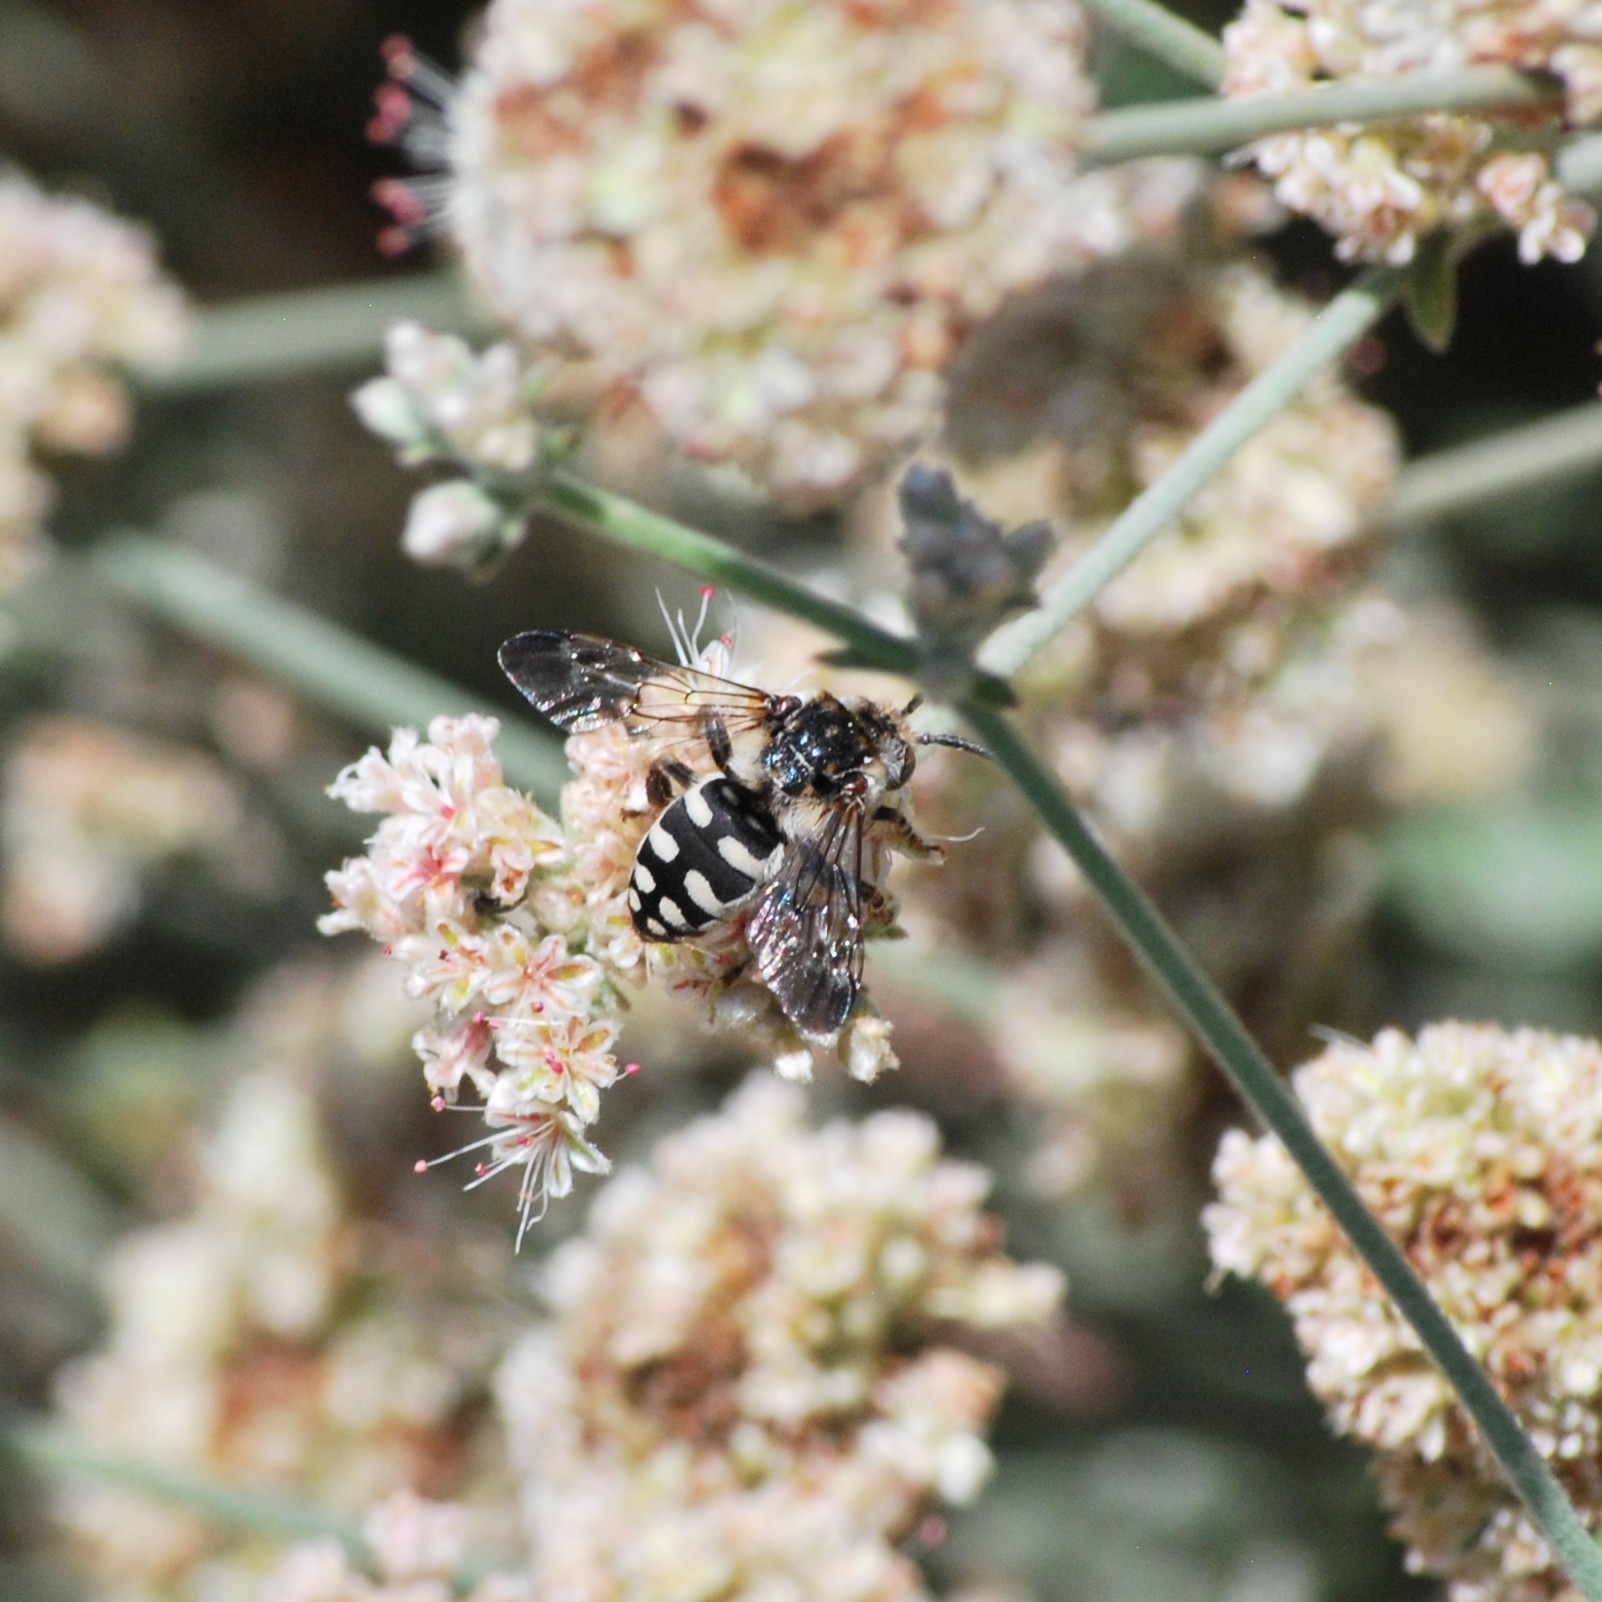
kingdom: Animalia
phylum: Arthropoda
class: Insecta
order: Hymenoptera
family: Apidae
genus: Brachymelecta
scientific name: Brachymelecta californica
